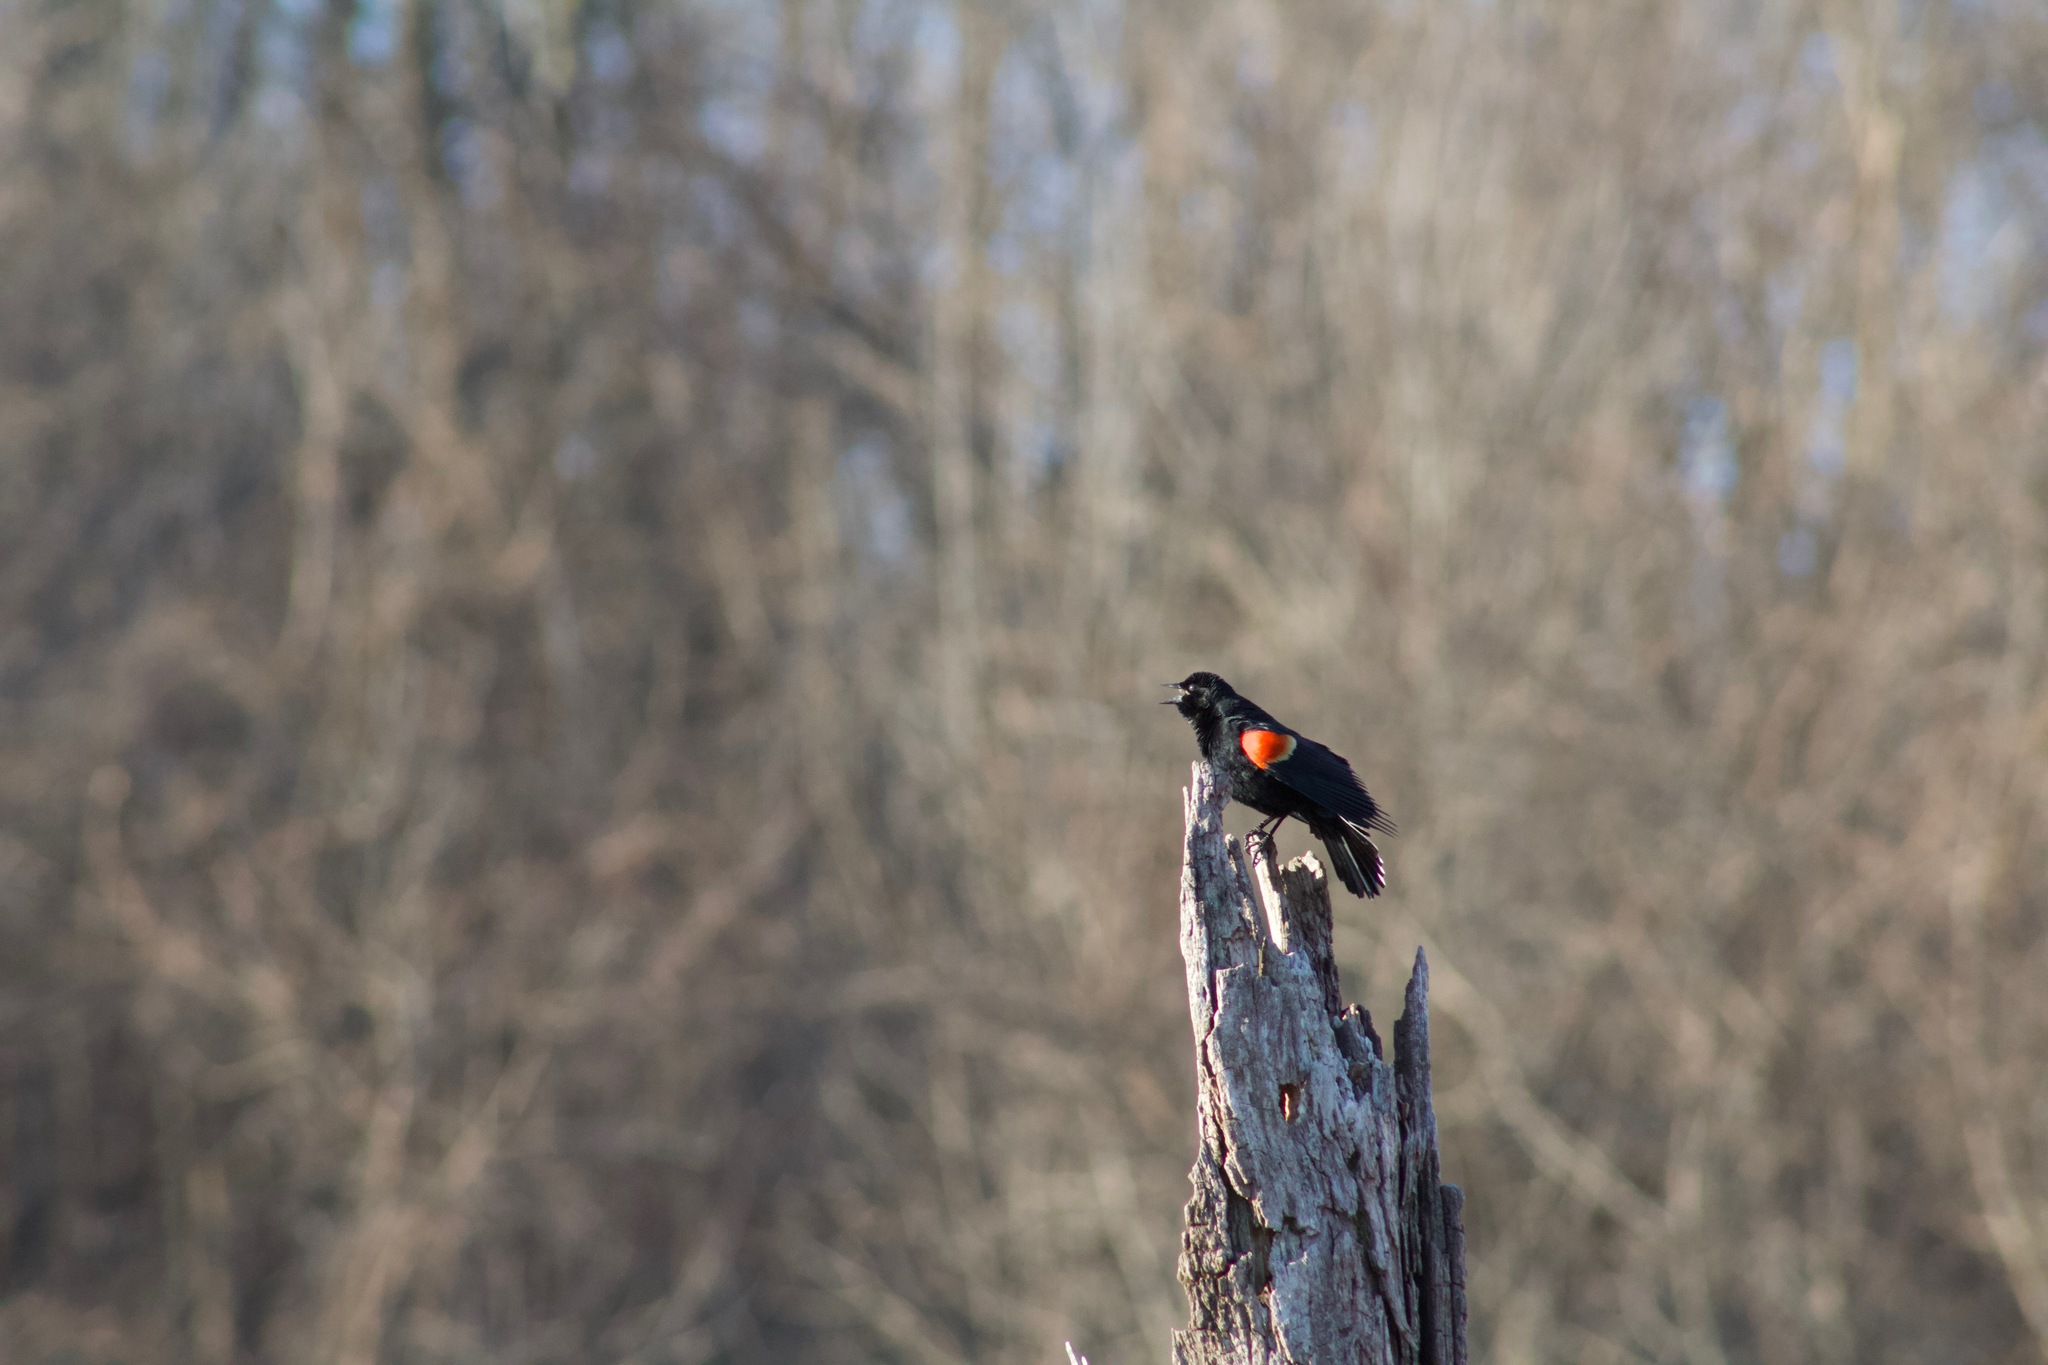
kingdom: Animalia
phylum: Chordata
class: Aves
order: Passeriformes
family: Icteridae
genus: Agelaius
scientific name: Agelaius phoeniceus
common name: Red-winged blackbird
